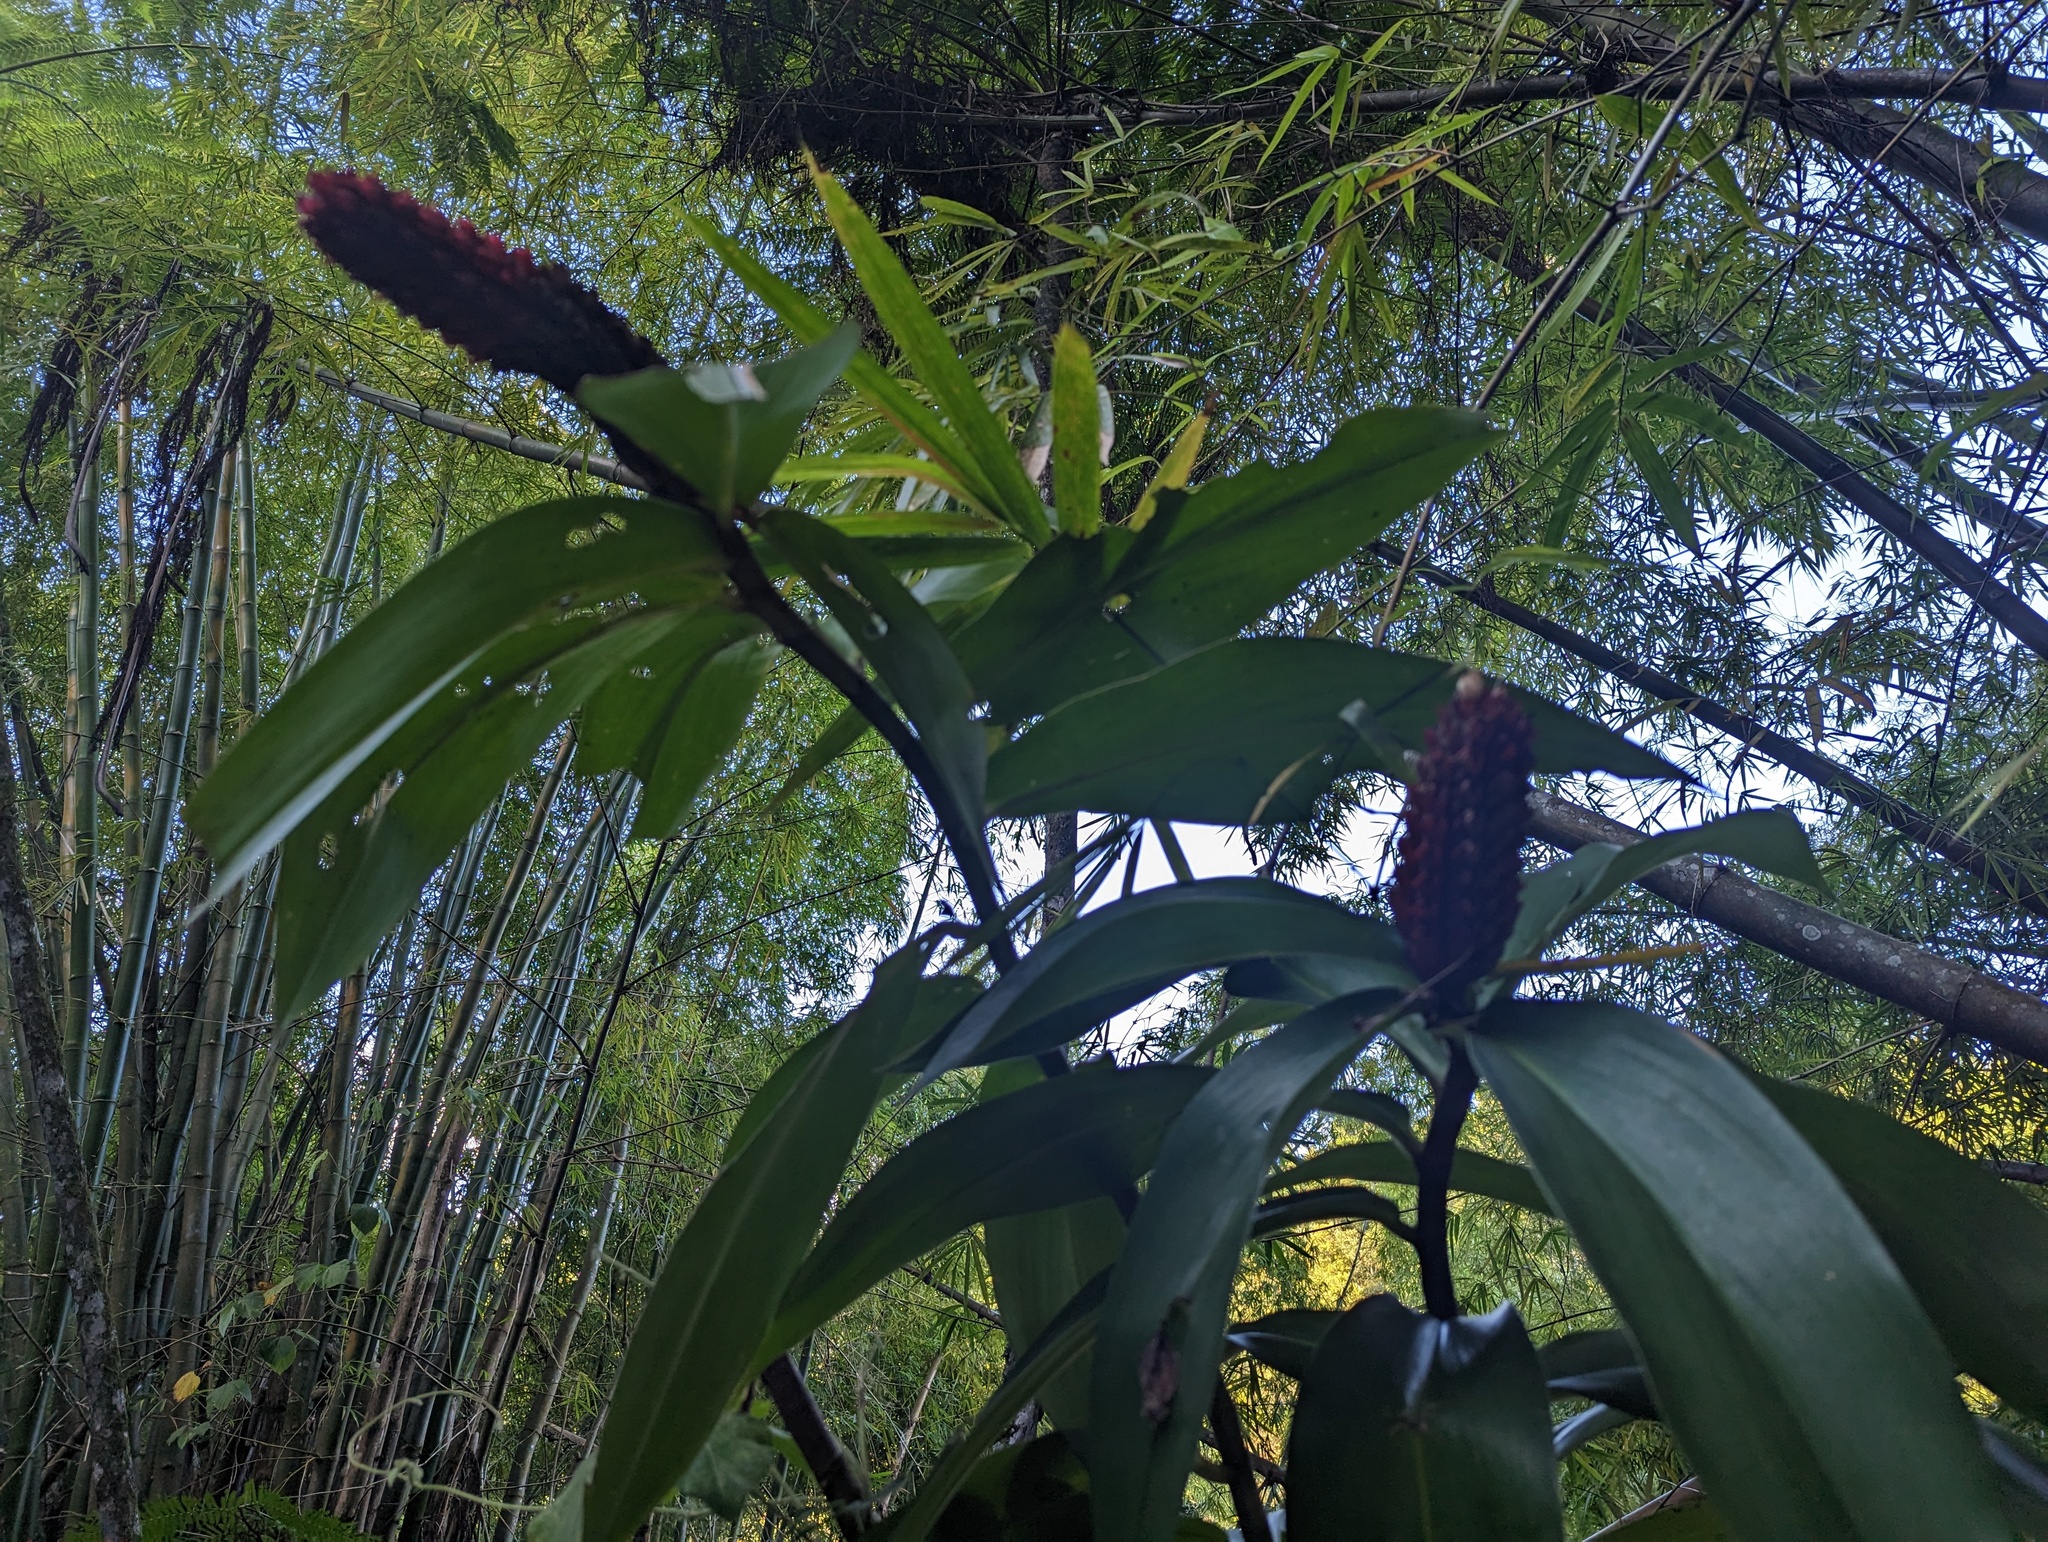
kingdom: Plantae
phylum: Tracheophyta
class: Liliopsida
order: Zingiberales
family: Costaceae
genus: Hellenia
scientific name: Hellenia speciosa
